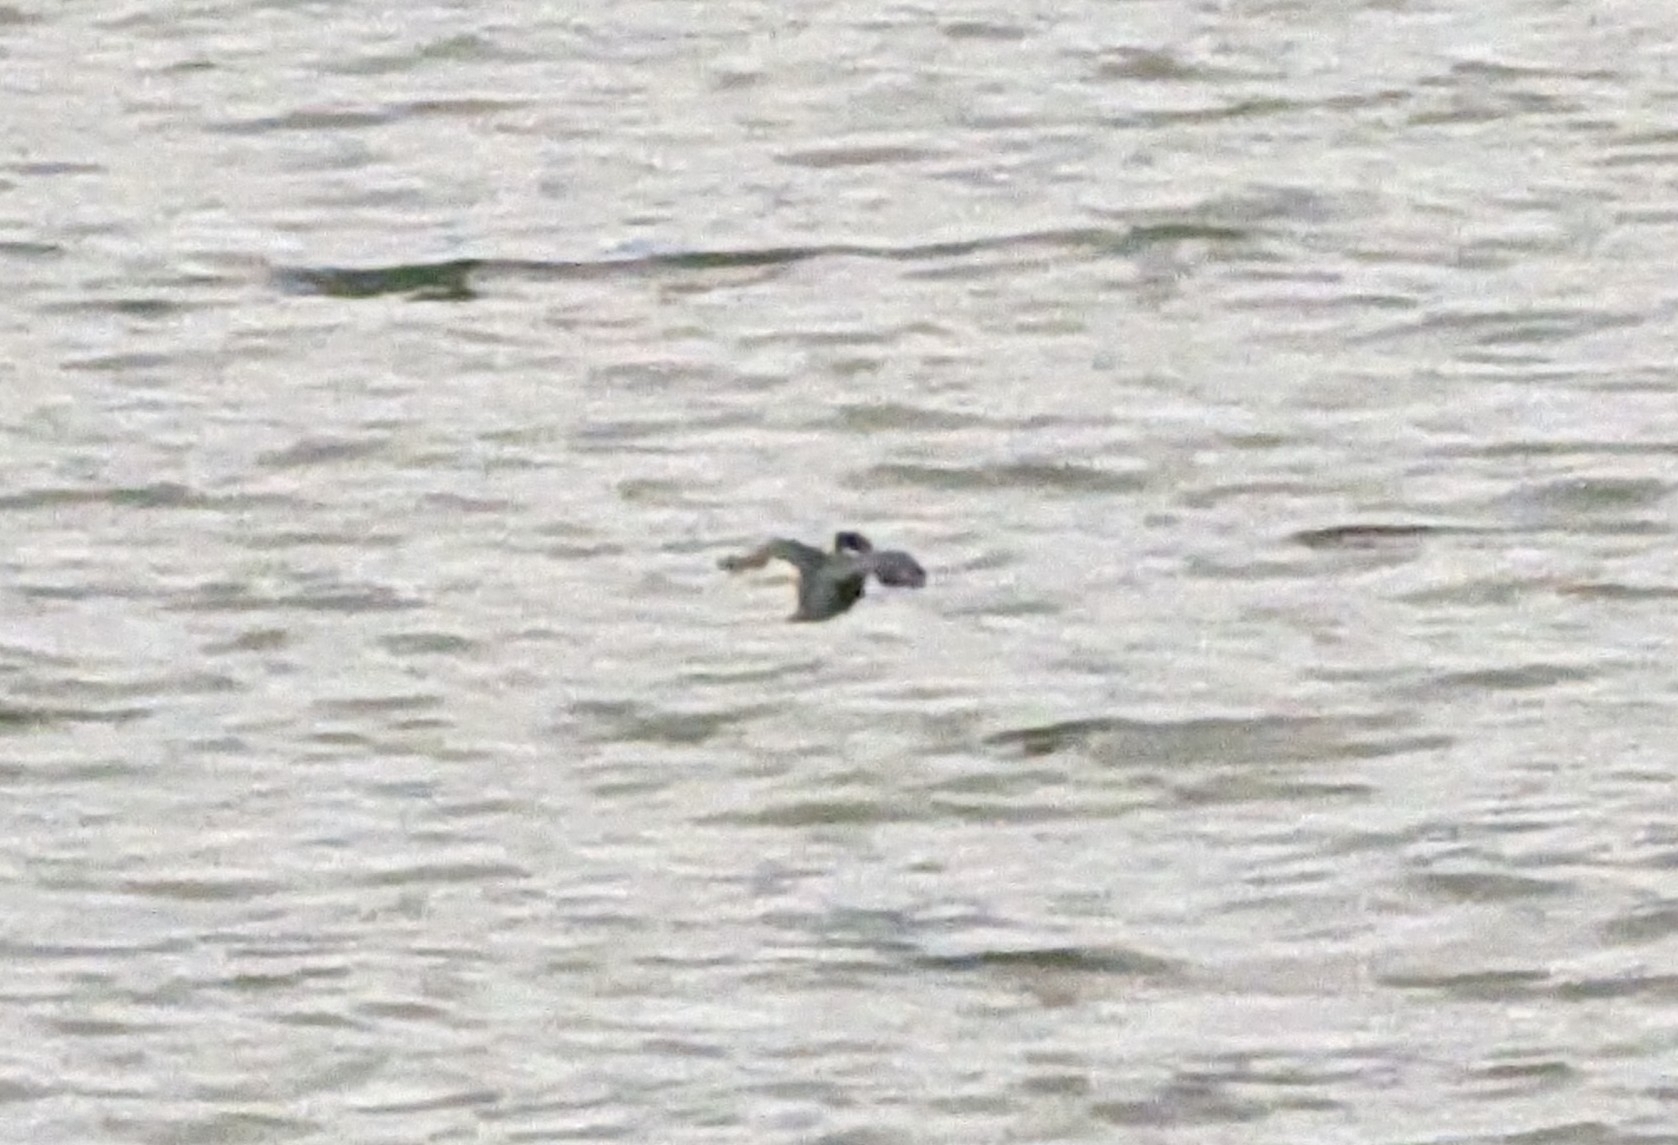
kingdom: Animalia
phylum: Chordata
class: Aves
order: Coraciiformes
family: Alcedinidae
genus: Megaceryle
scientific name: Megaceryle alcyon
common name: Belted kingfisher
